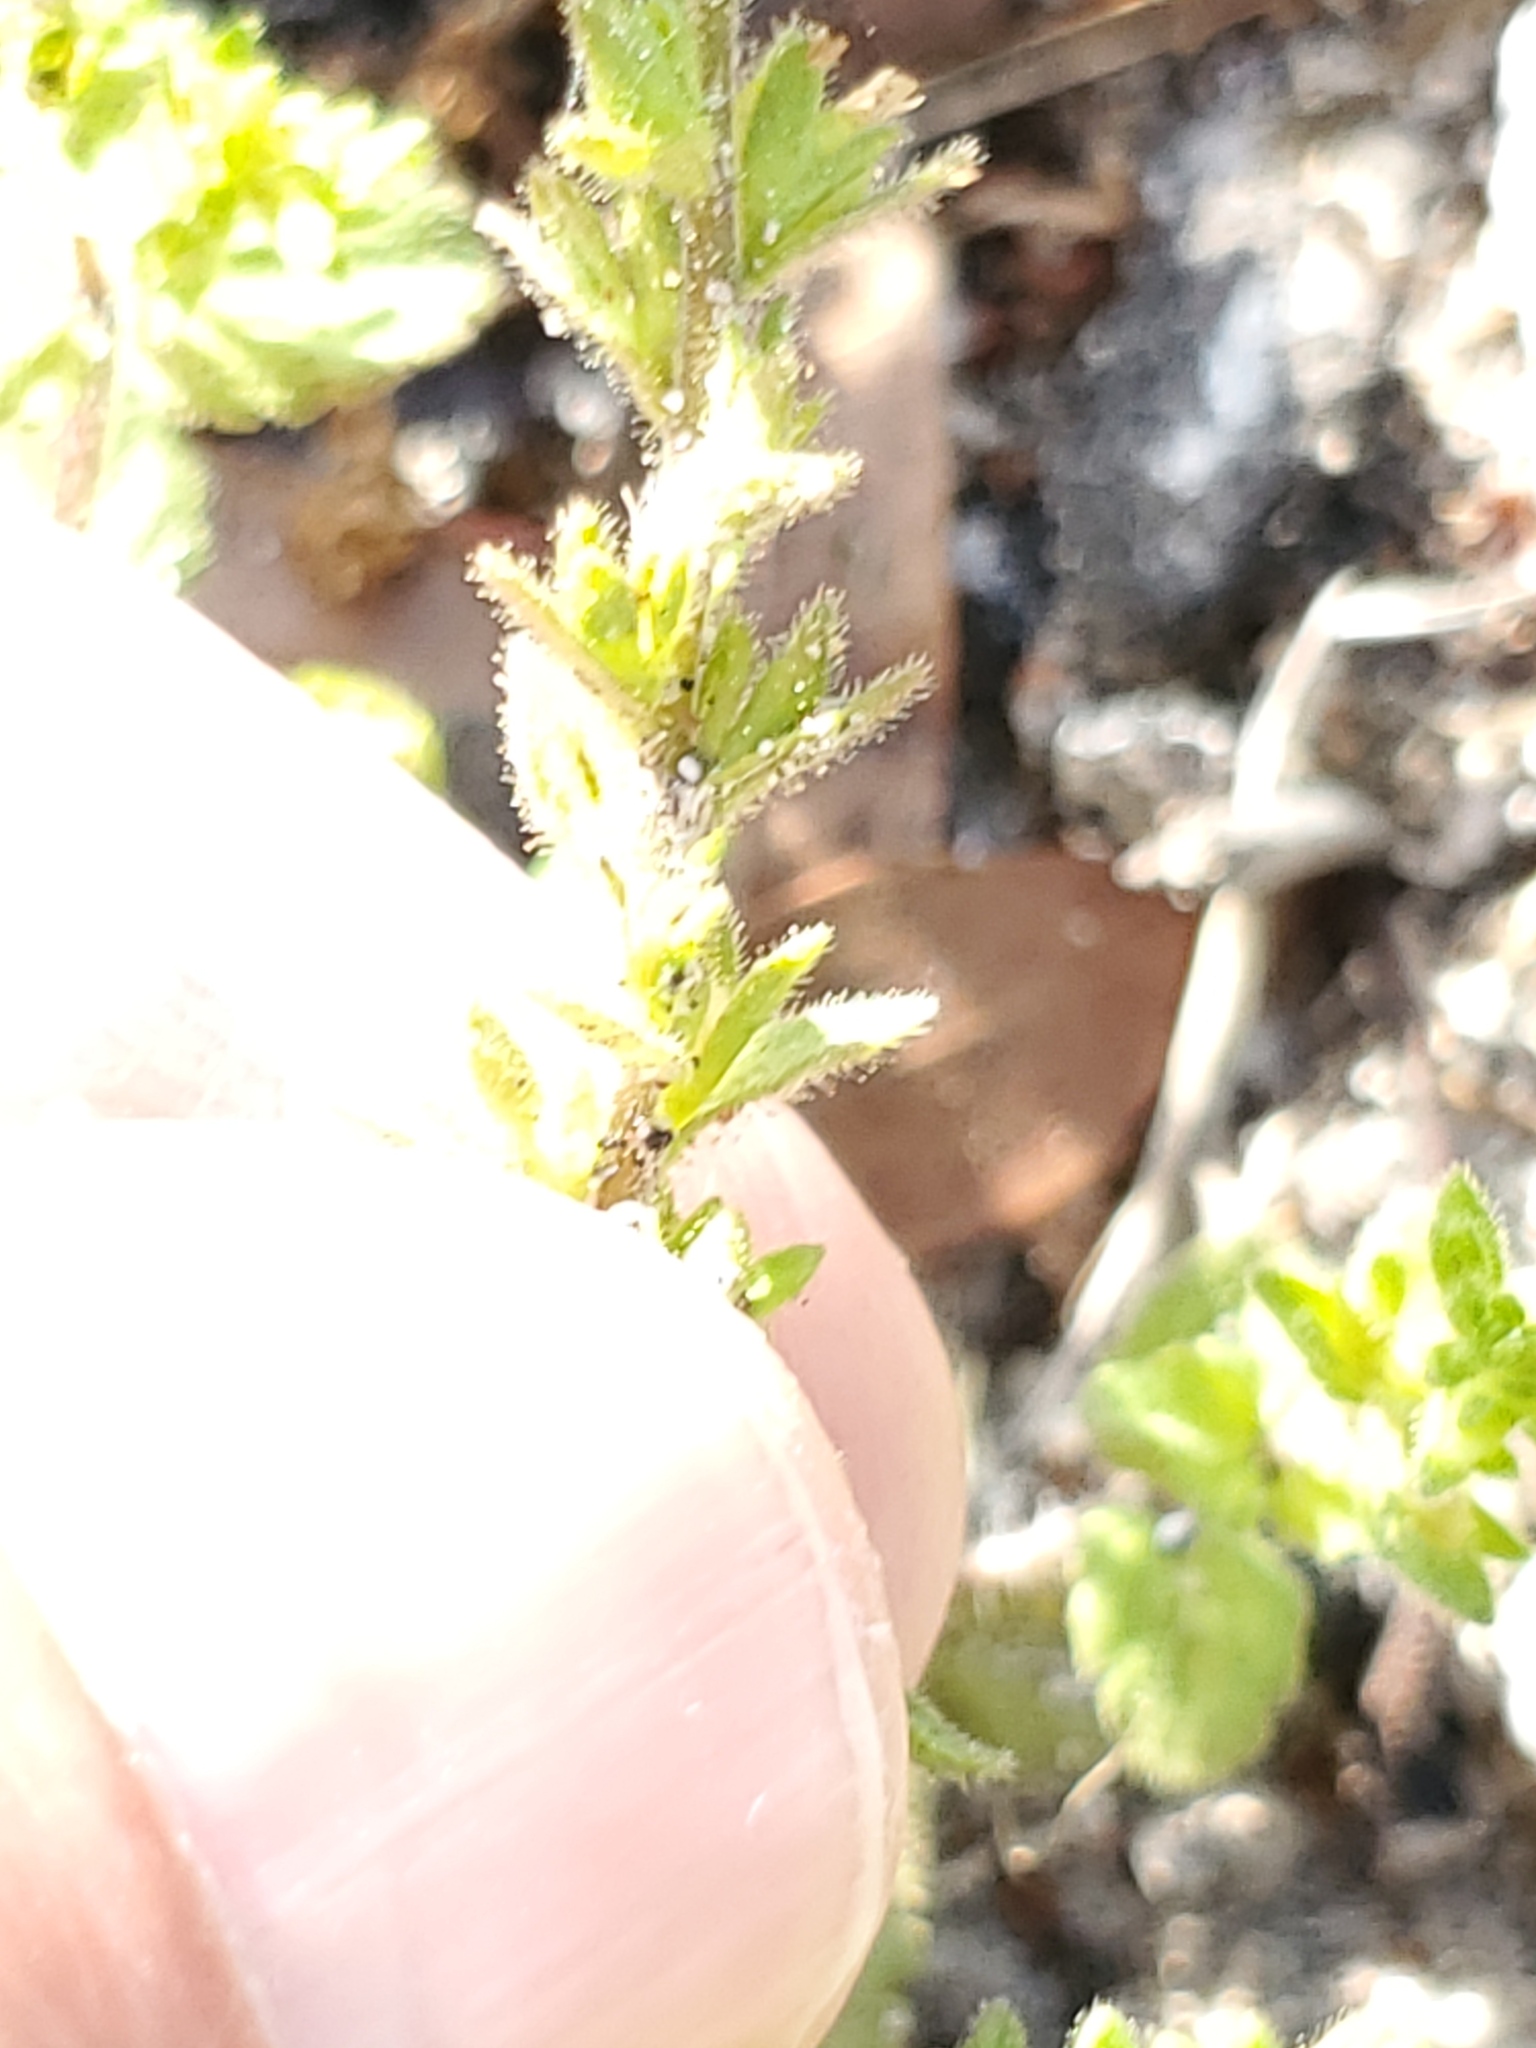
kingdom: Plantae
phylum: Tracheophyta
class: Magnoliopsida
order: Lamiales
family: Plantaginaceae
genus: Veronica
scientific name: Veronica arvensis
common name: Corn speedwell
